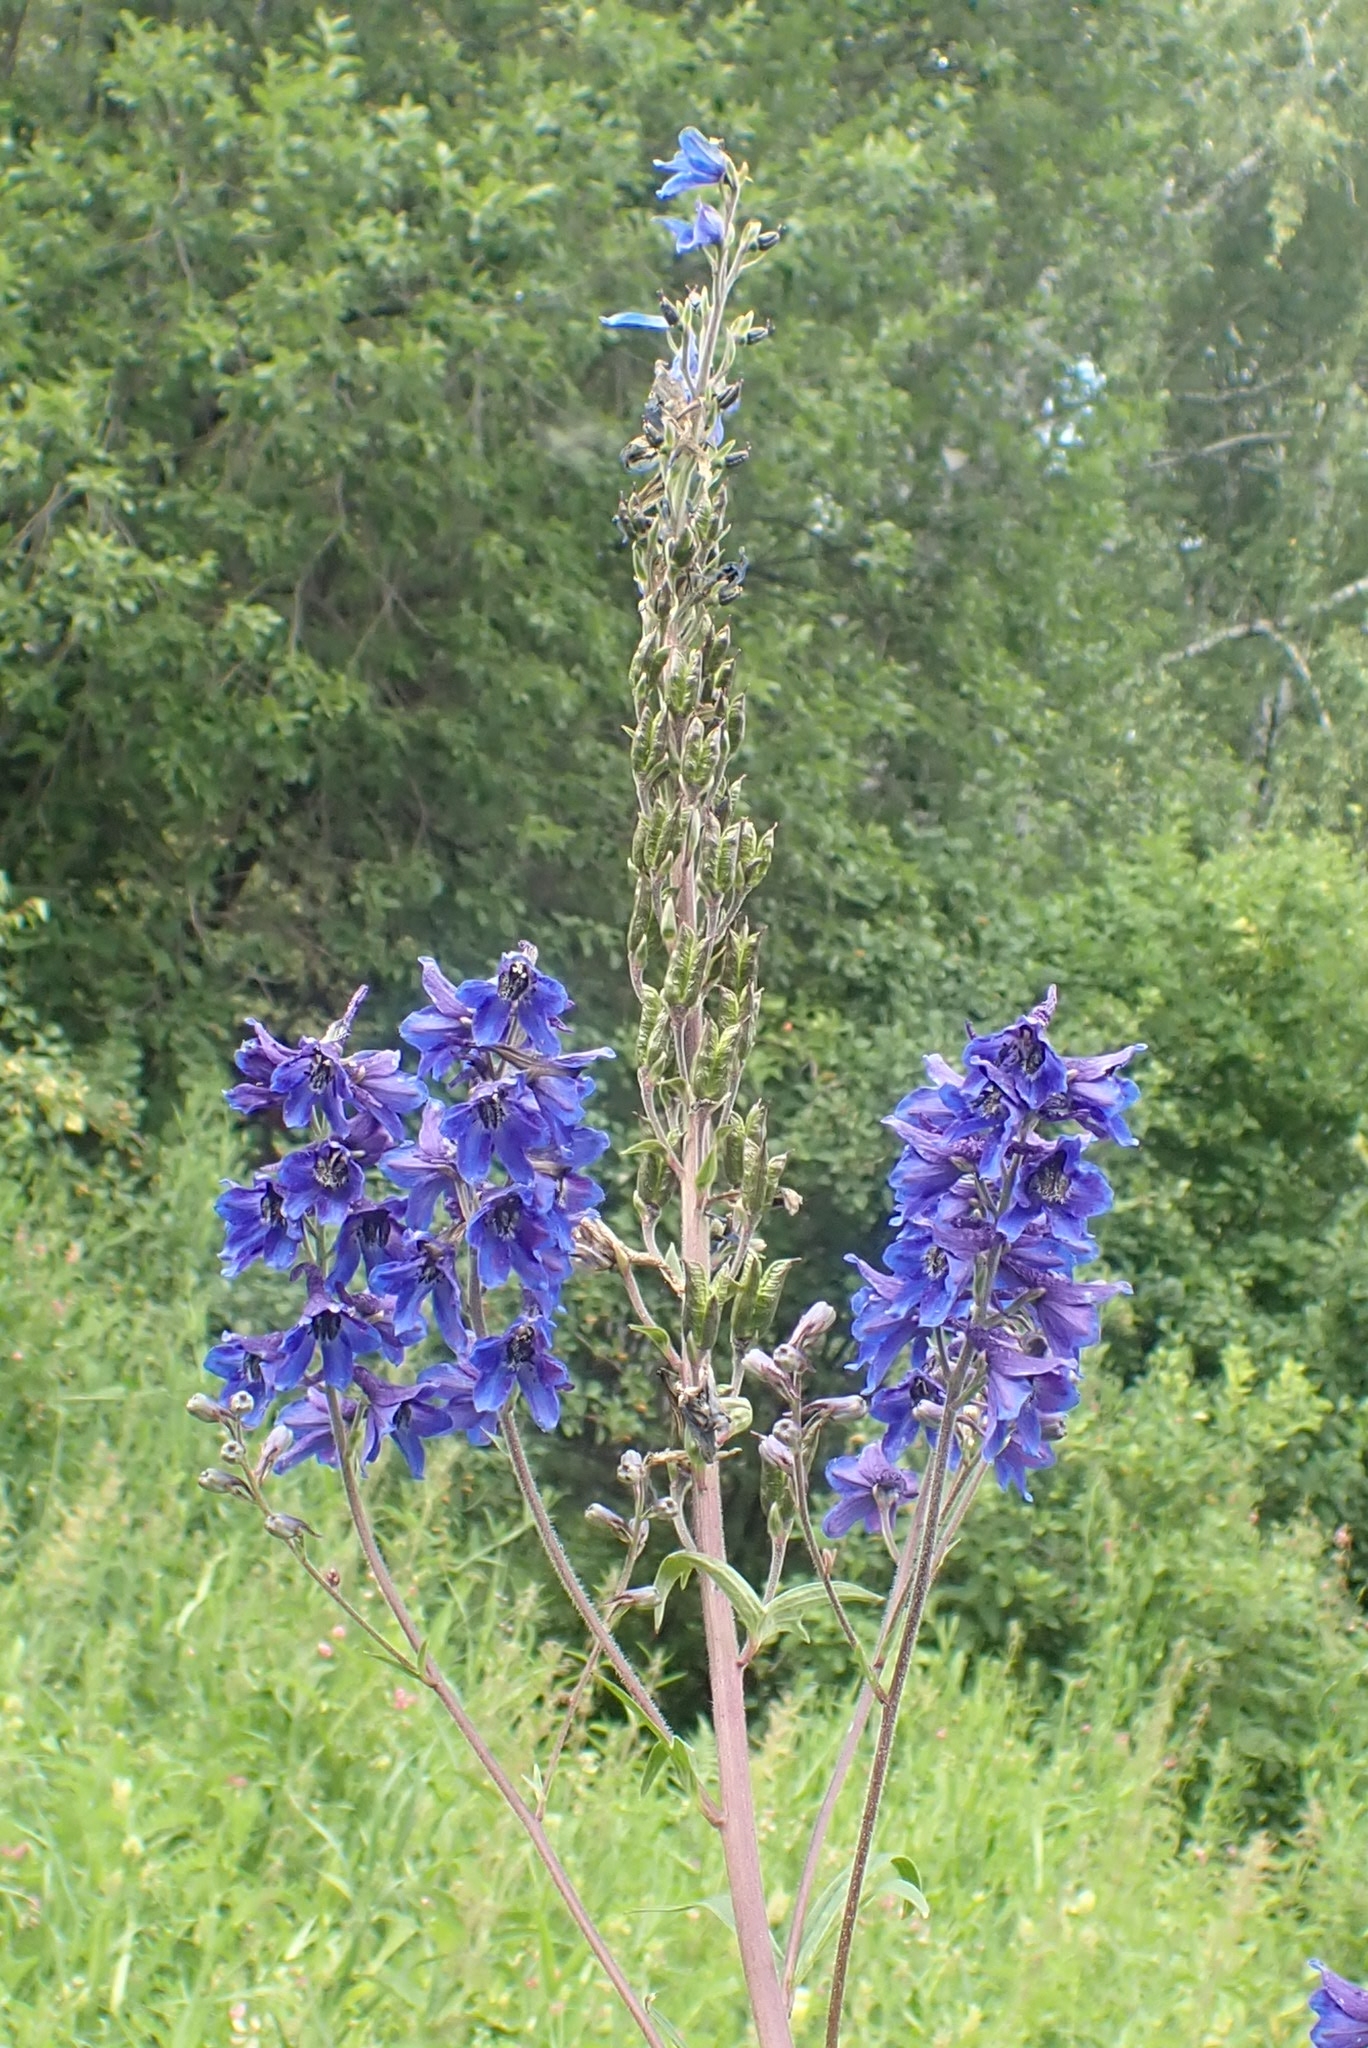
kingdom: Plantae
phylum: Tracheophyta
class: Magnoliopsida
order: Ranunculales
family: Ranunculaceae
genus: Delphinium
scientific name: Delphinium elatum
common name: Candle larkspur
